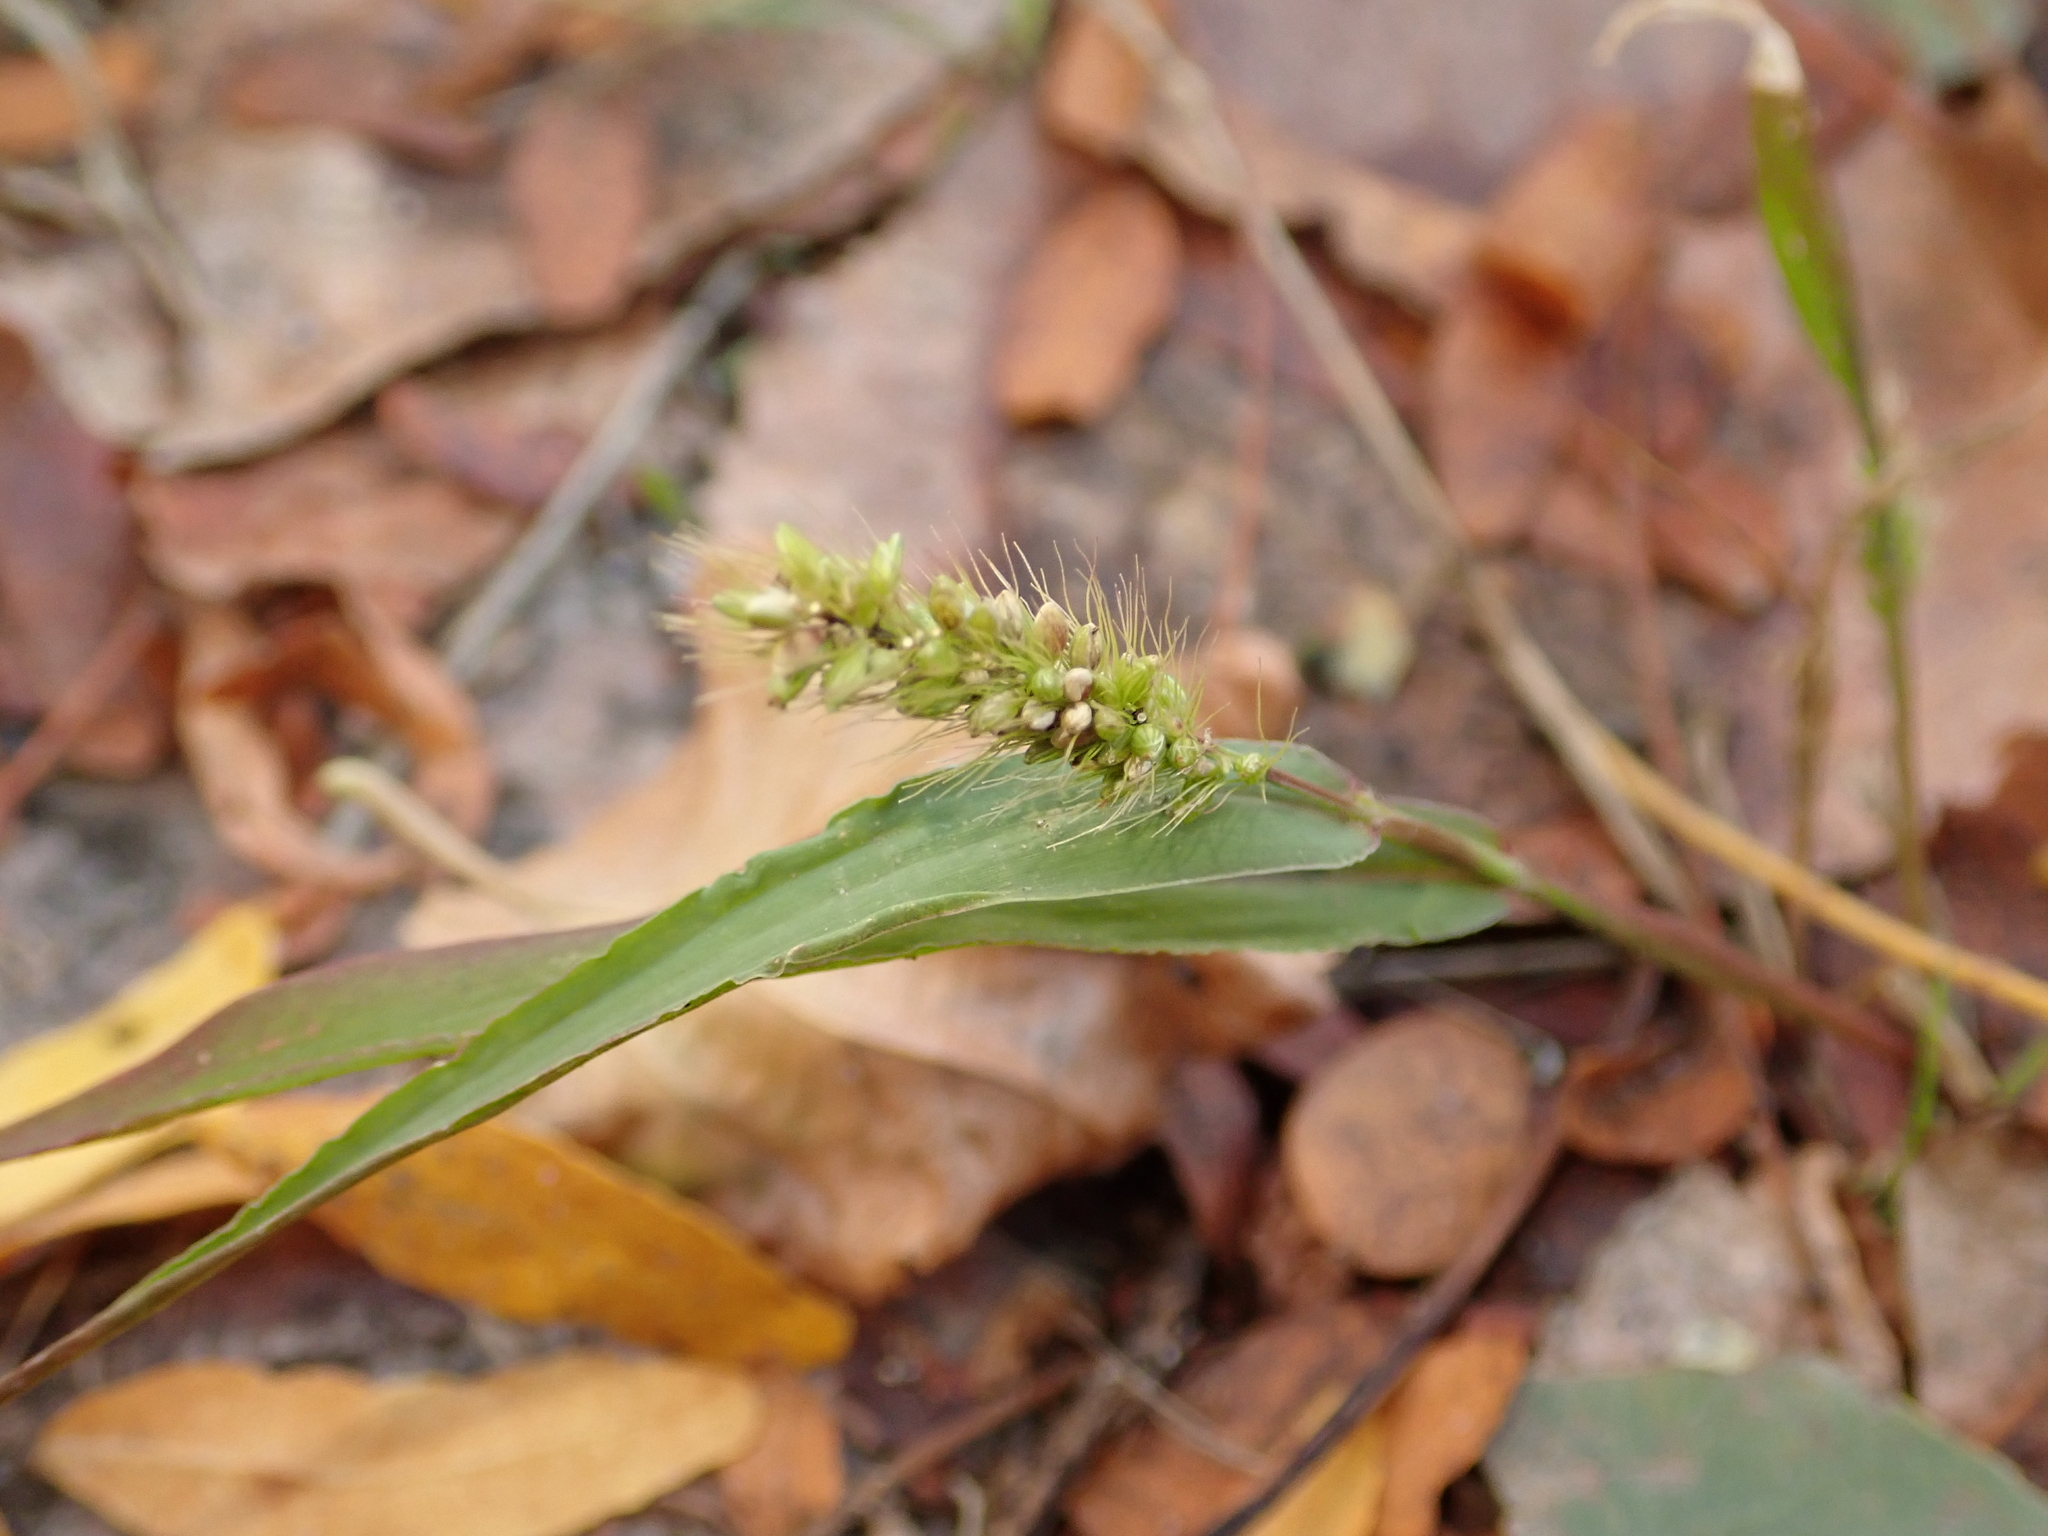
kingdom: Plantae
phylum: Tracheophyta
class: Liliopsida
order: Poales
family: Poaceae
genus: Setaria
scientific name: Setaria viridis
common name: Green bristlegrass
